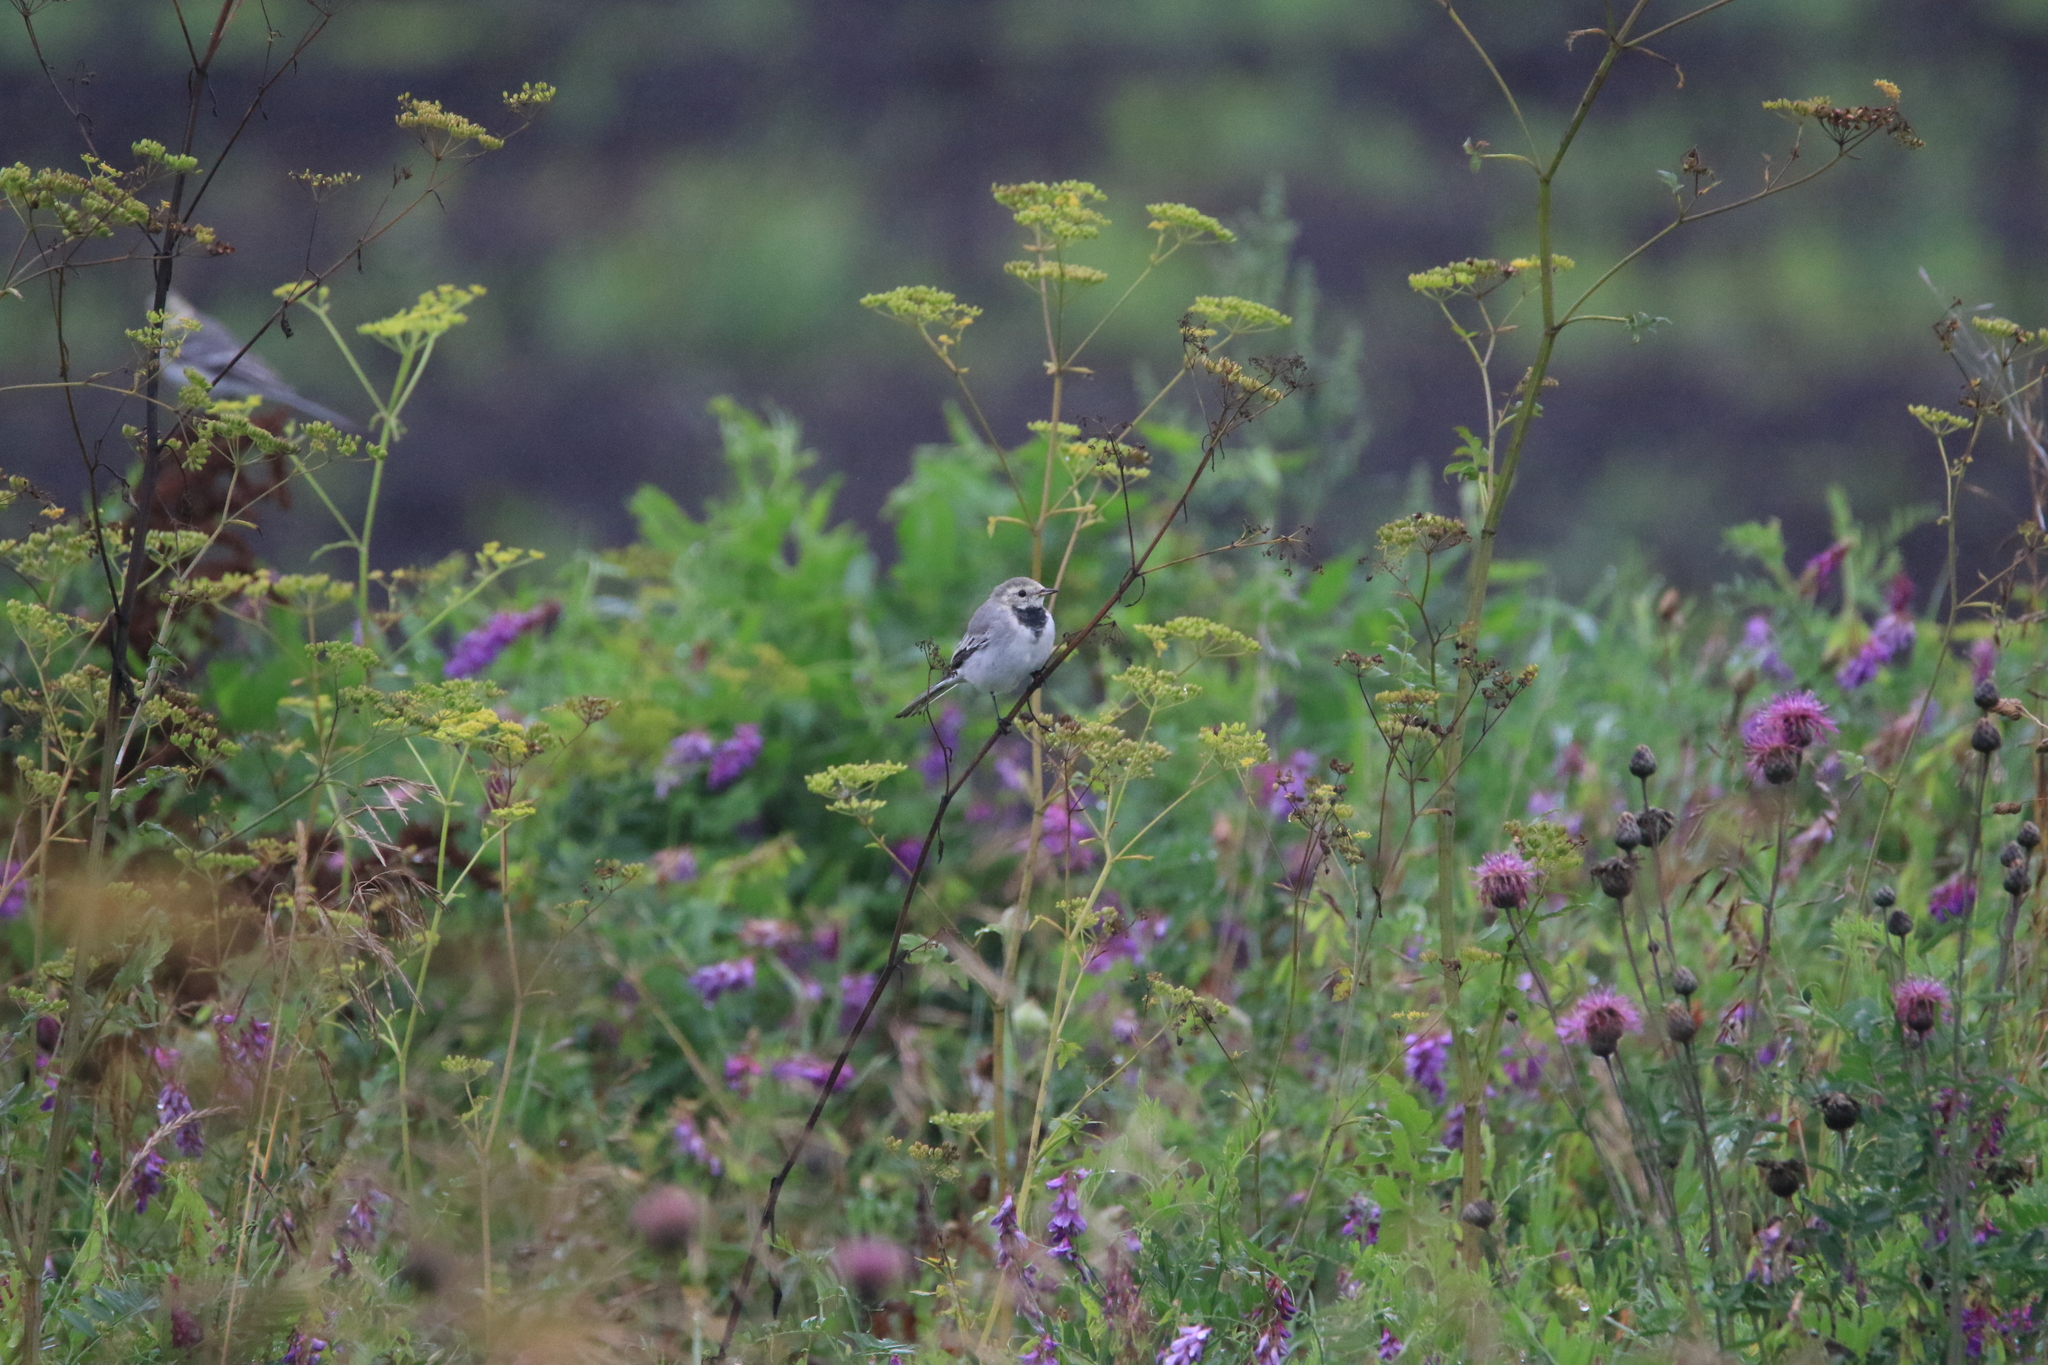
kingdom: Animalia
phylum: Chordata
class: Aves
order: Passeriformes
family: Motacillidae
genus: Motacilla
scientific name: Motacilla alba
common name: White wagtail
